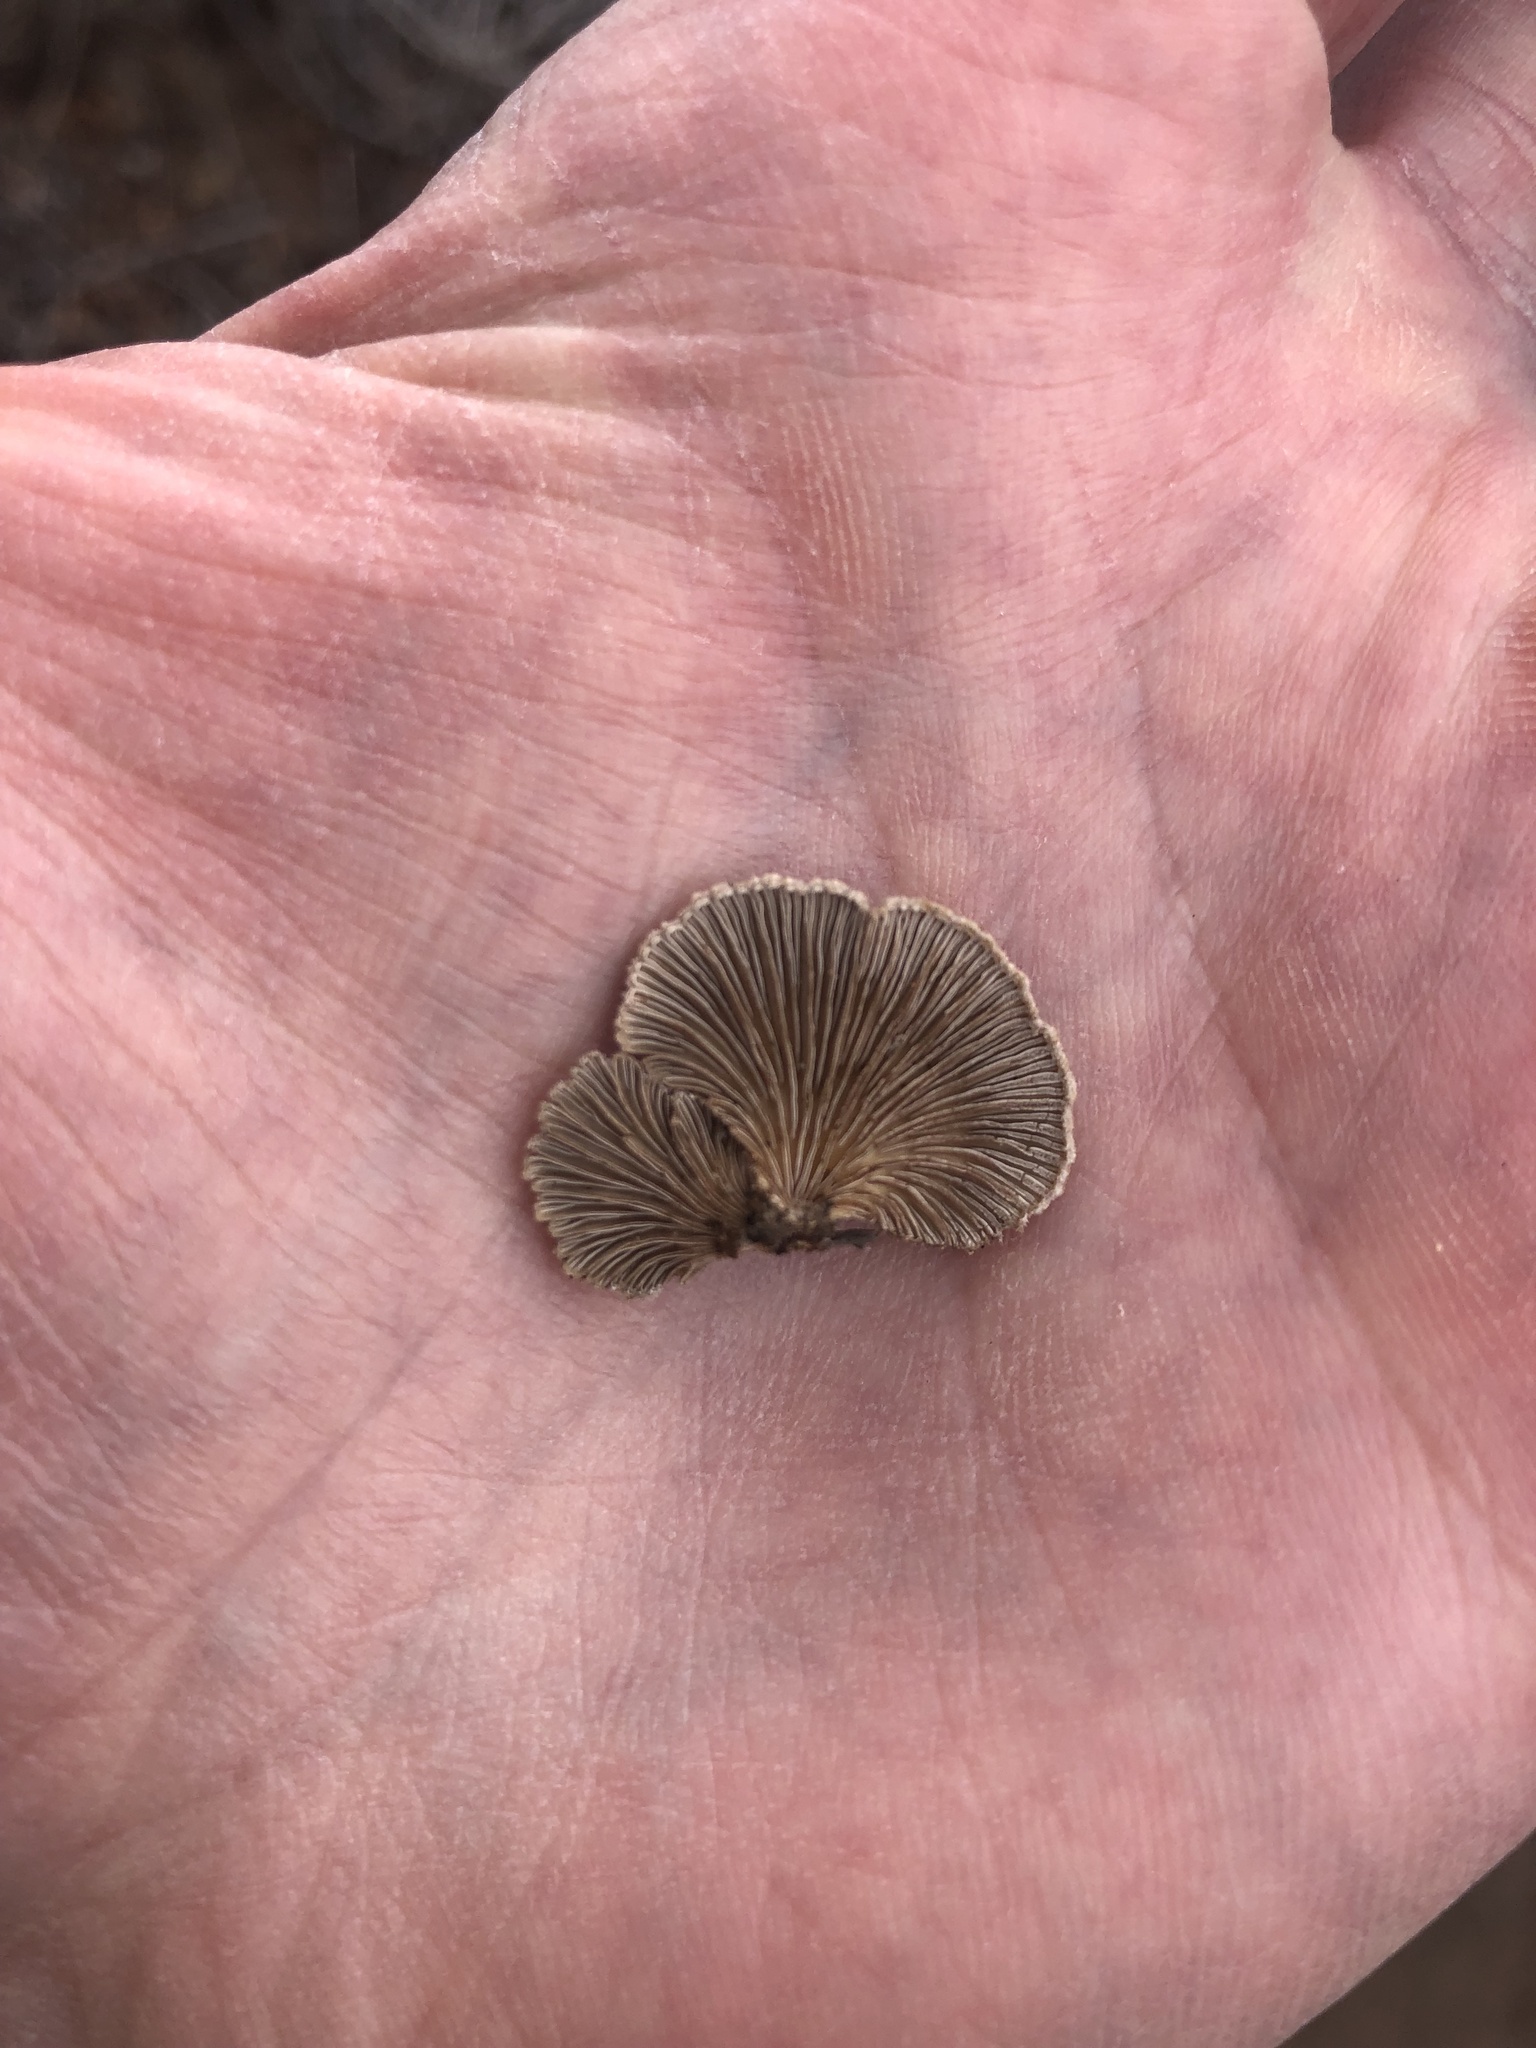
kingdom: Fungi
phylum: Basidiomycota
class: Agaricomycetes
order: Agaricales
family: Schizophyllaceae
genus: Schizophyllum
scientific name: Schizophyllum commune
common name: Common porecrust
